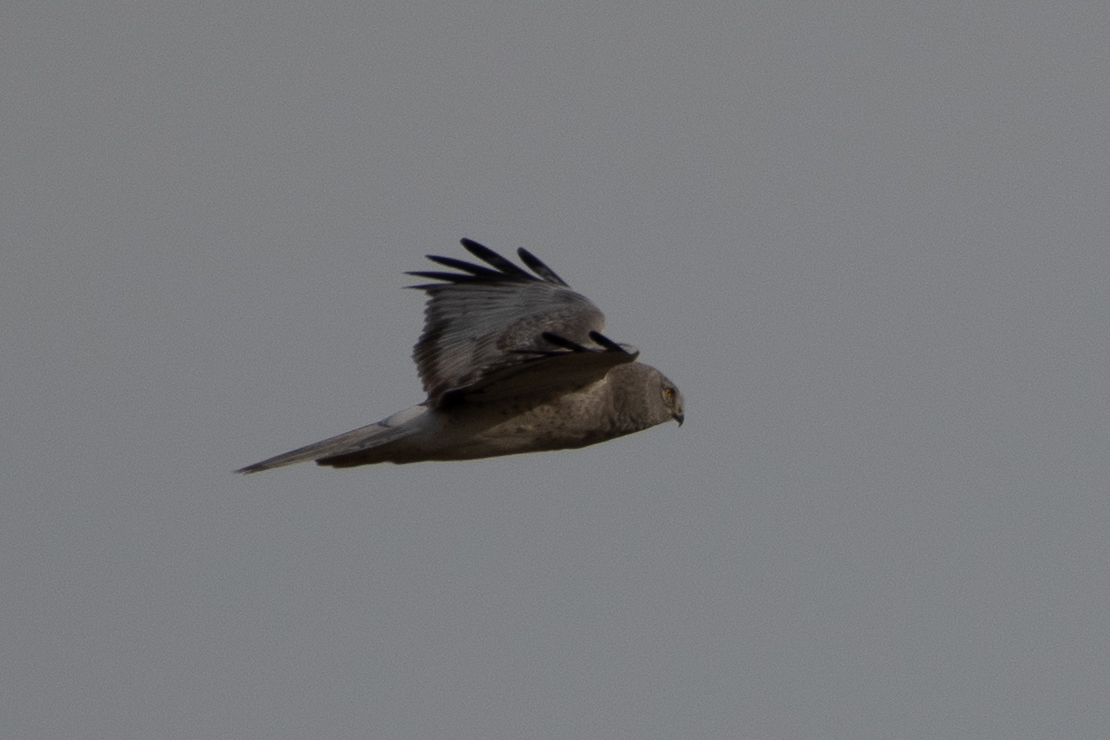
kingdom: Animalia
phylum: Chordata
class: Aves
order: Accipitriformes
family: Accipitridae
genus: Circus
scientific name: Circus cyaneus
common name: Hen harrier
